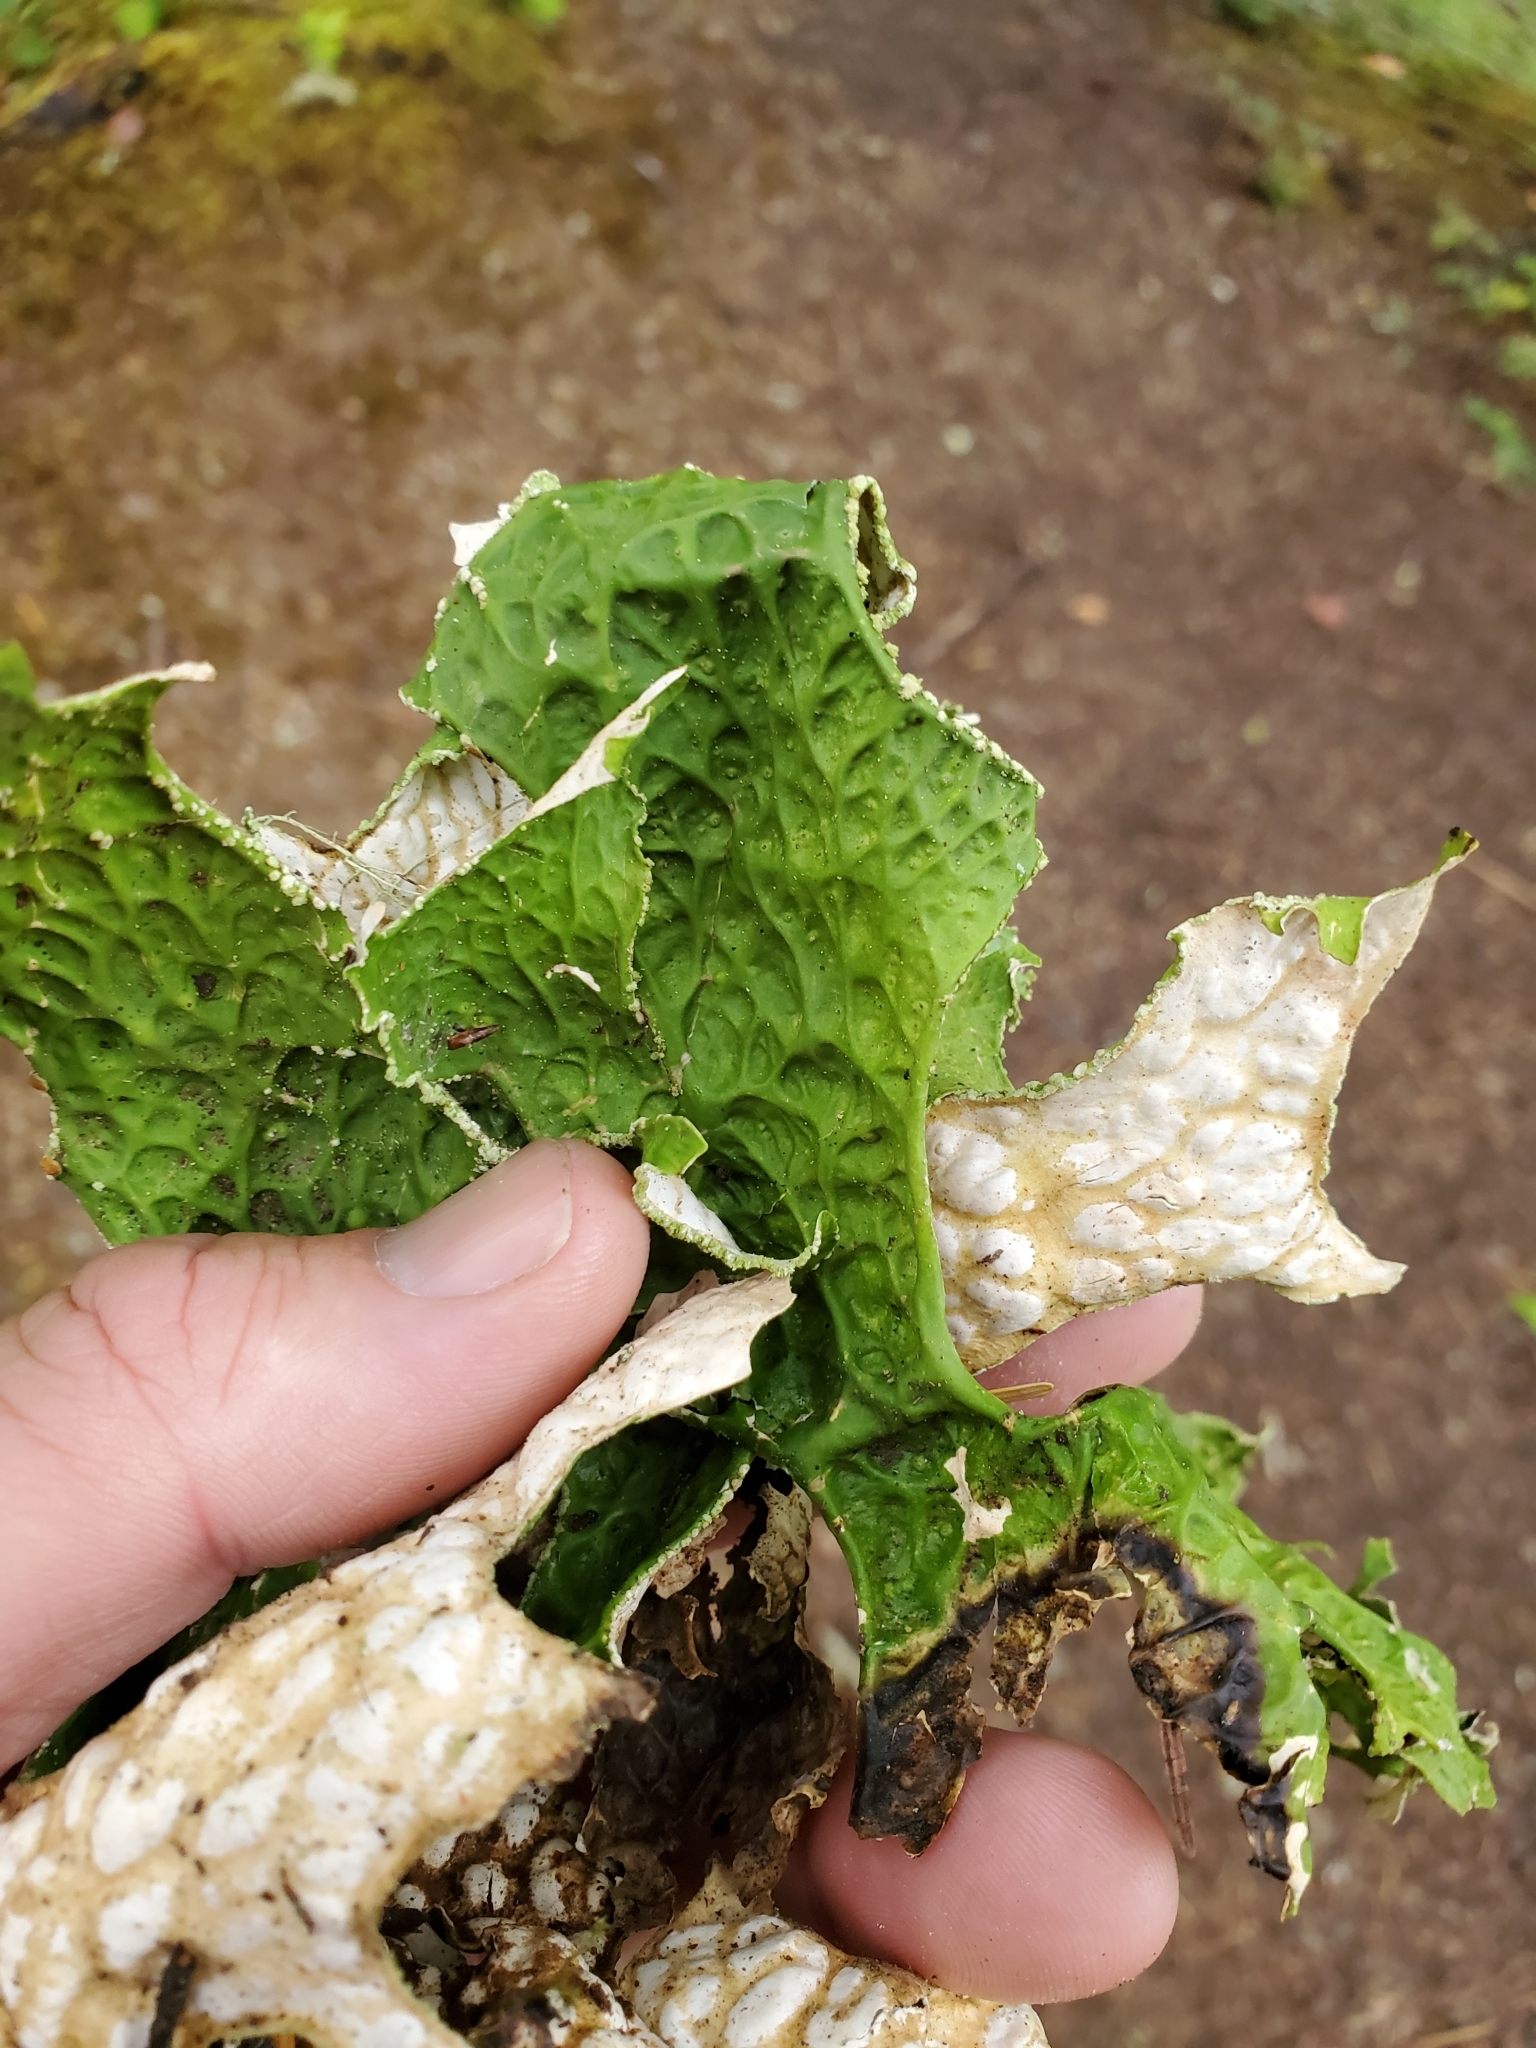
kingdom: Fungi
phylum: Ascomycota
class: Lecanoromycetes
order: Peltigerales
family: Lobariaceae
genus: Lobaria
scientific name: Lobaria pulmonaria
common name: Lungwort
